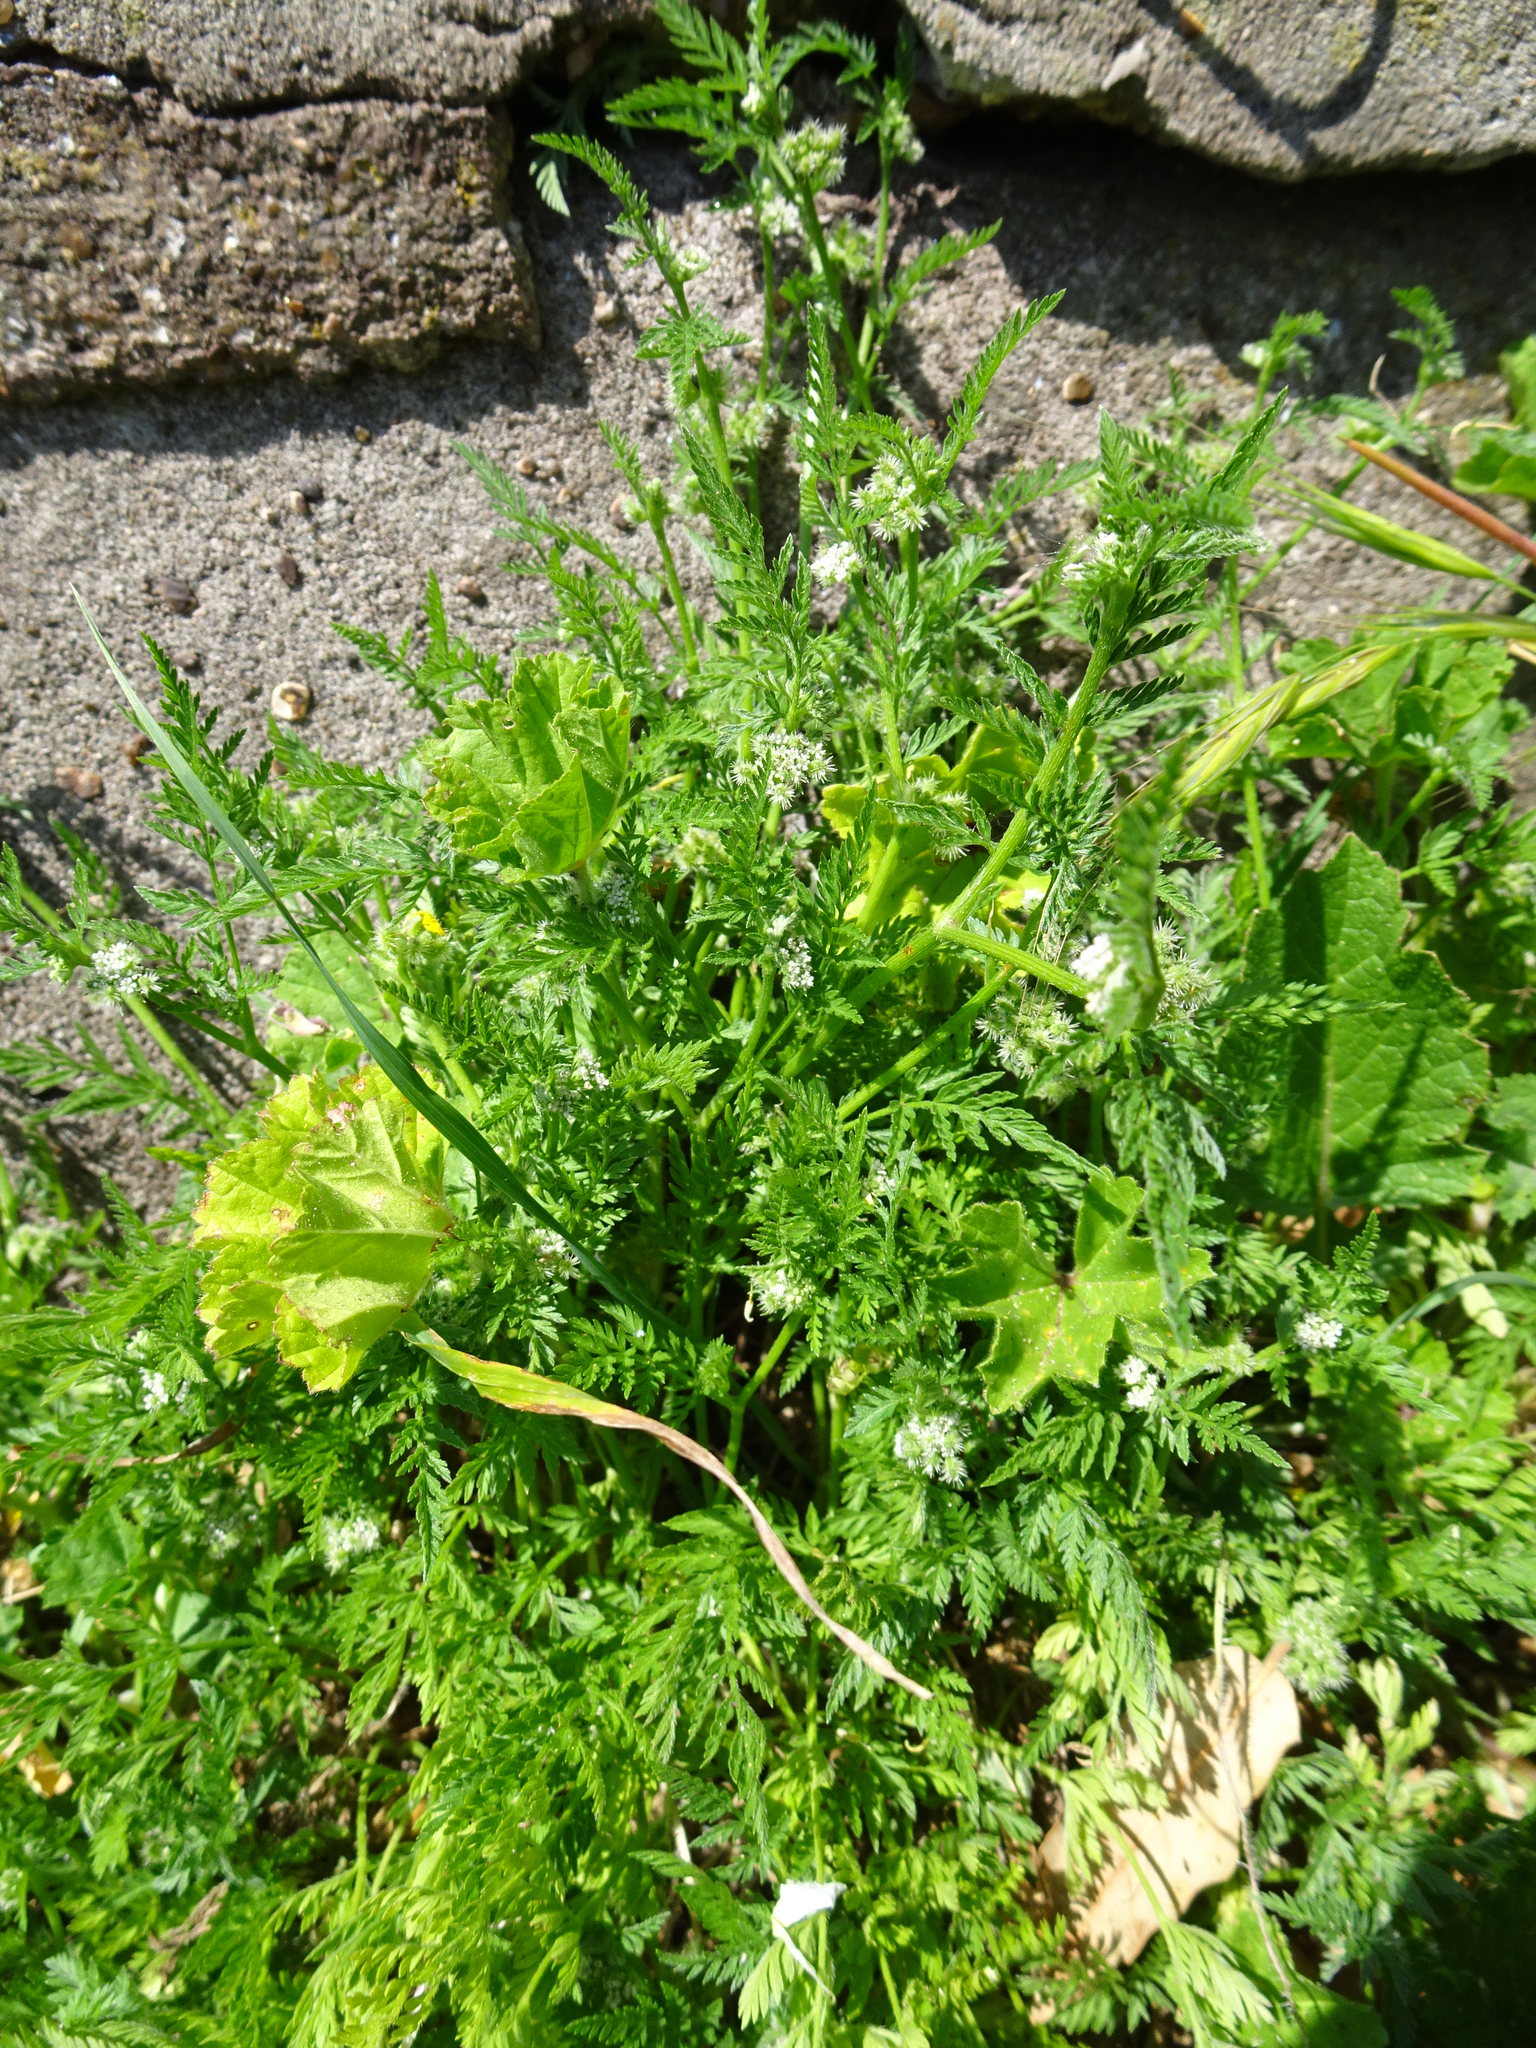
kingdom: Plantae
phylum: Tracheophyta
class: Magnoliopsida
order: Apiales
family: Apiaceae
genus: Torilis
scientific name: Torilis nodosa
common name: Knotted hedge-parsley
